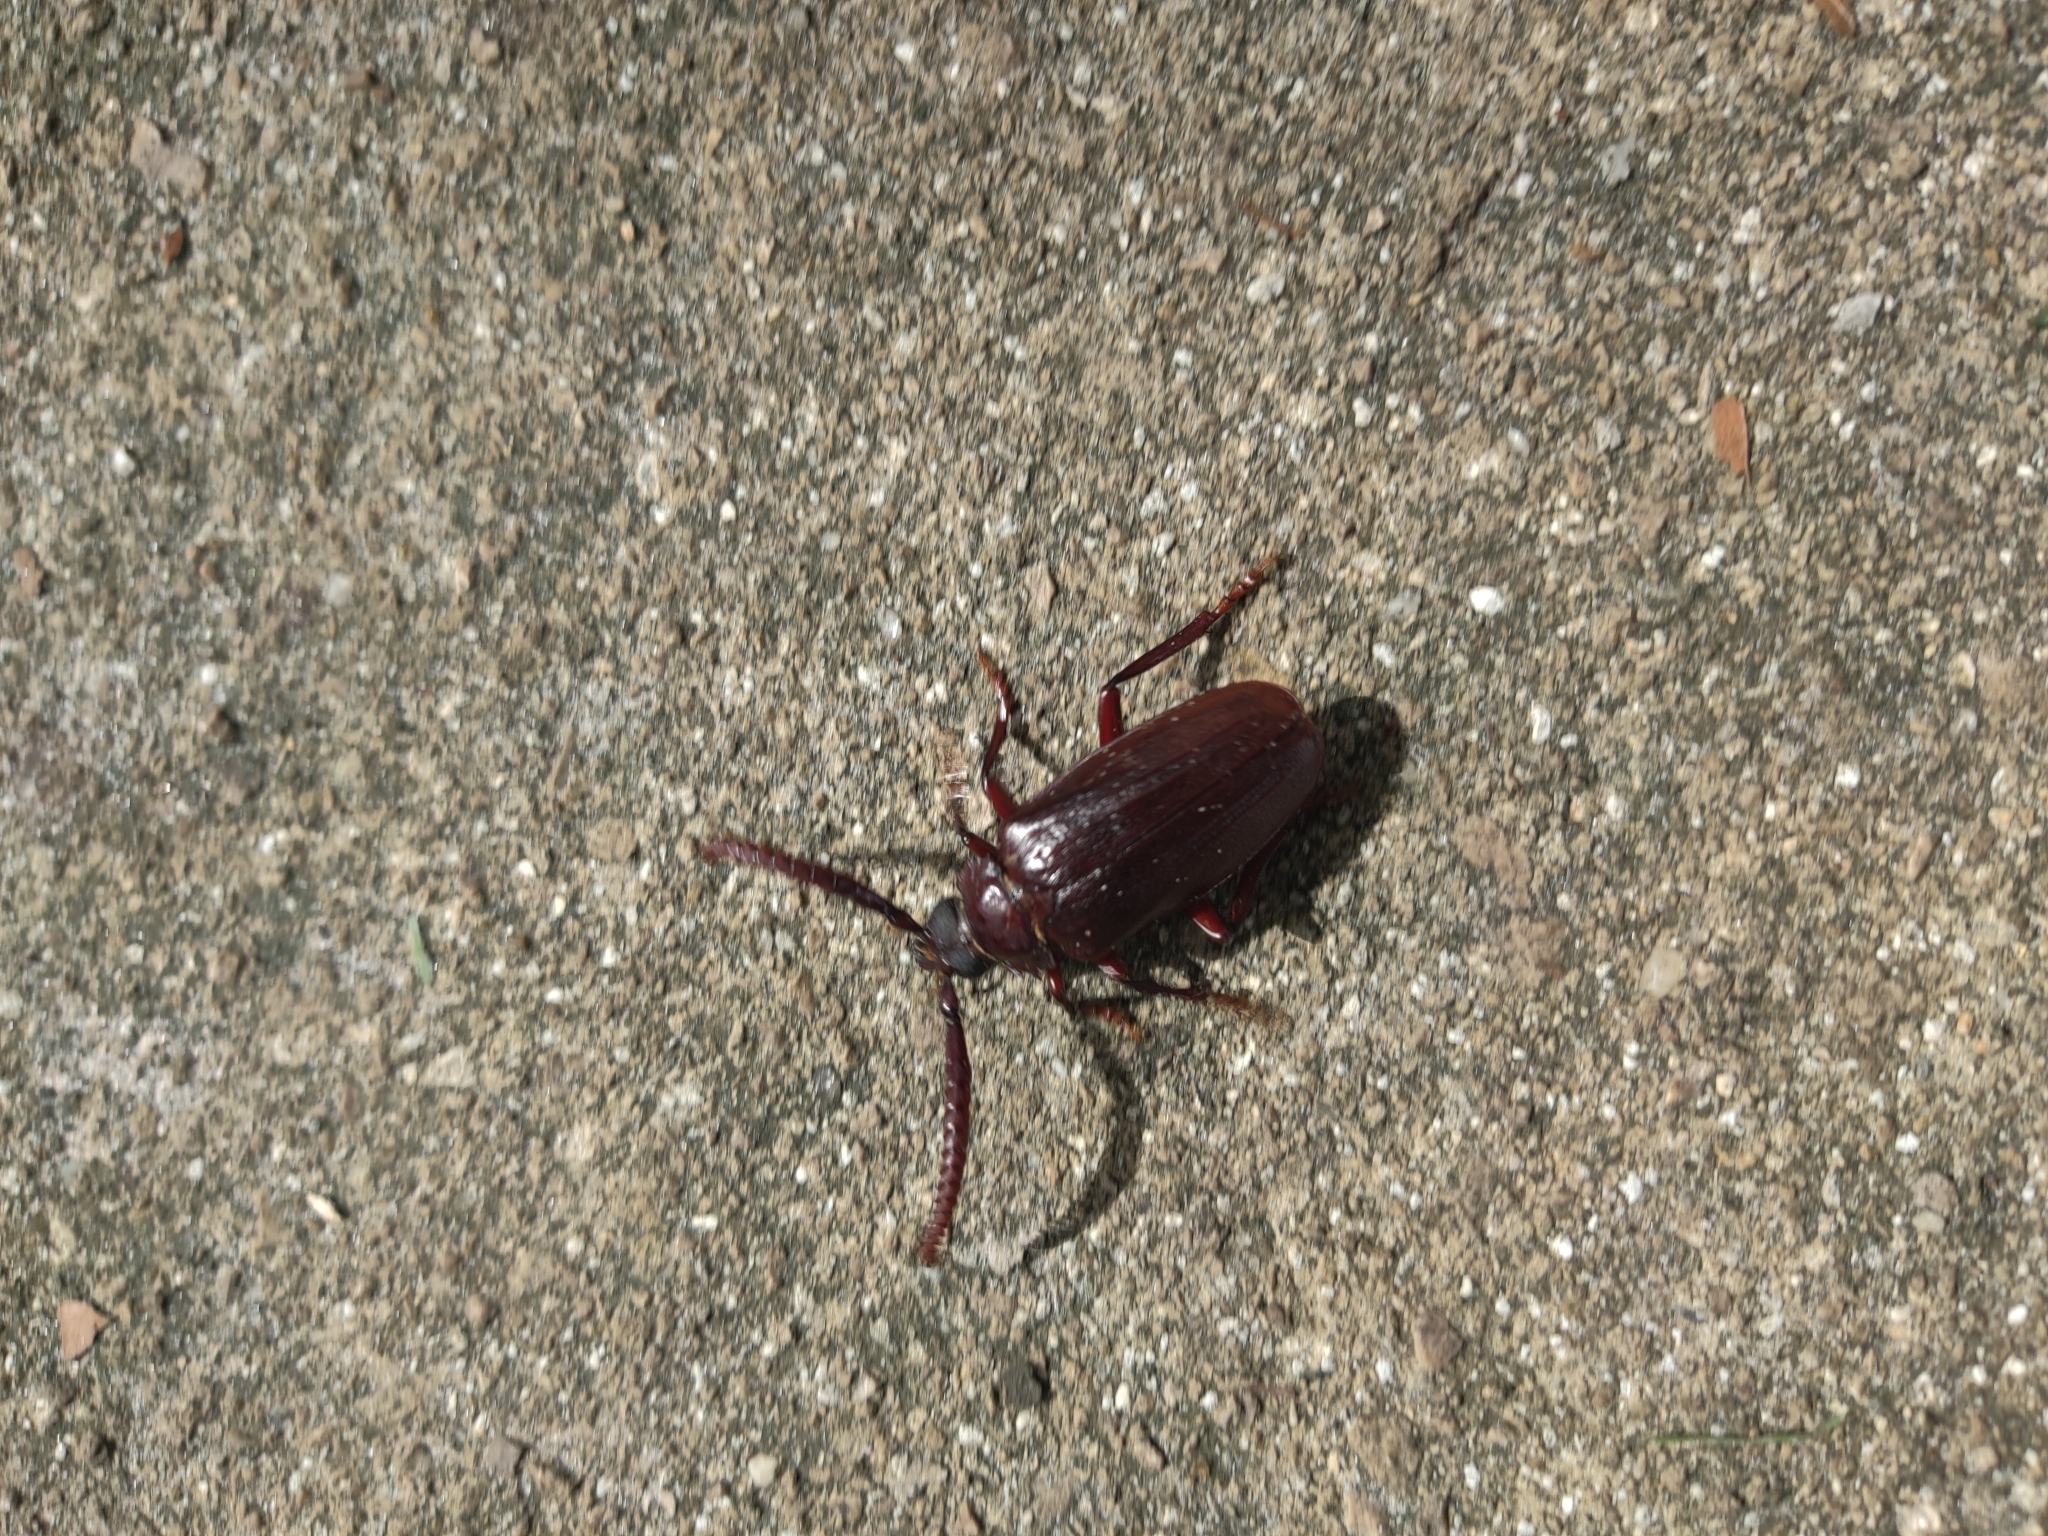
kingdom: Animalia
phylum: Arthropoda
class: Insecta
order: Coleoptera
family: Cerambycidae
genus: Prionus
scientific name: Prionus imbricornis
